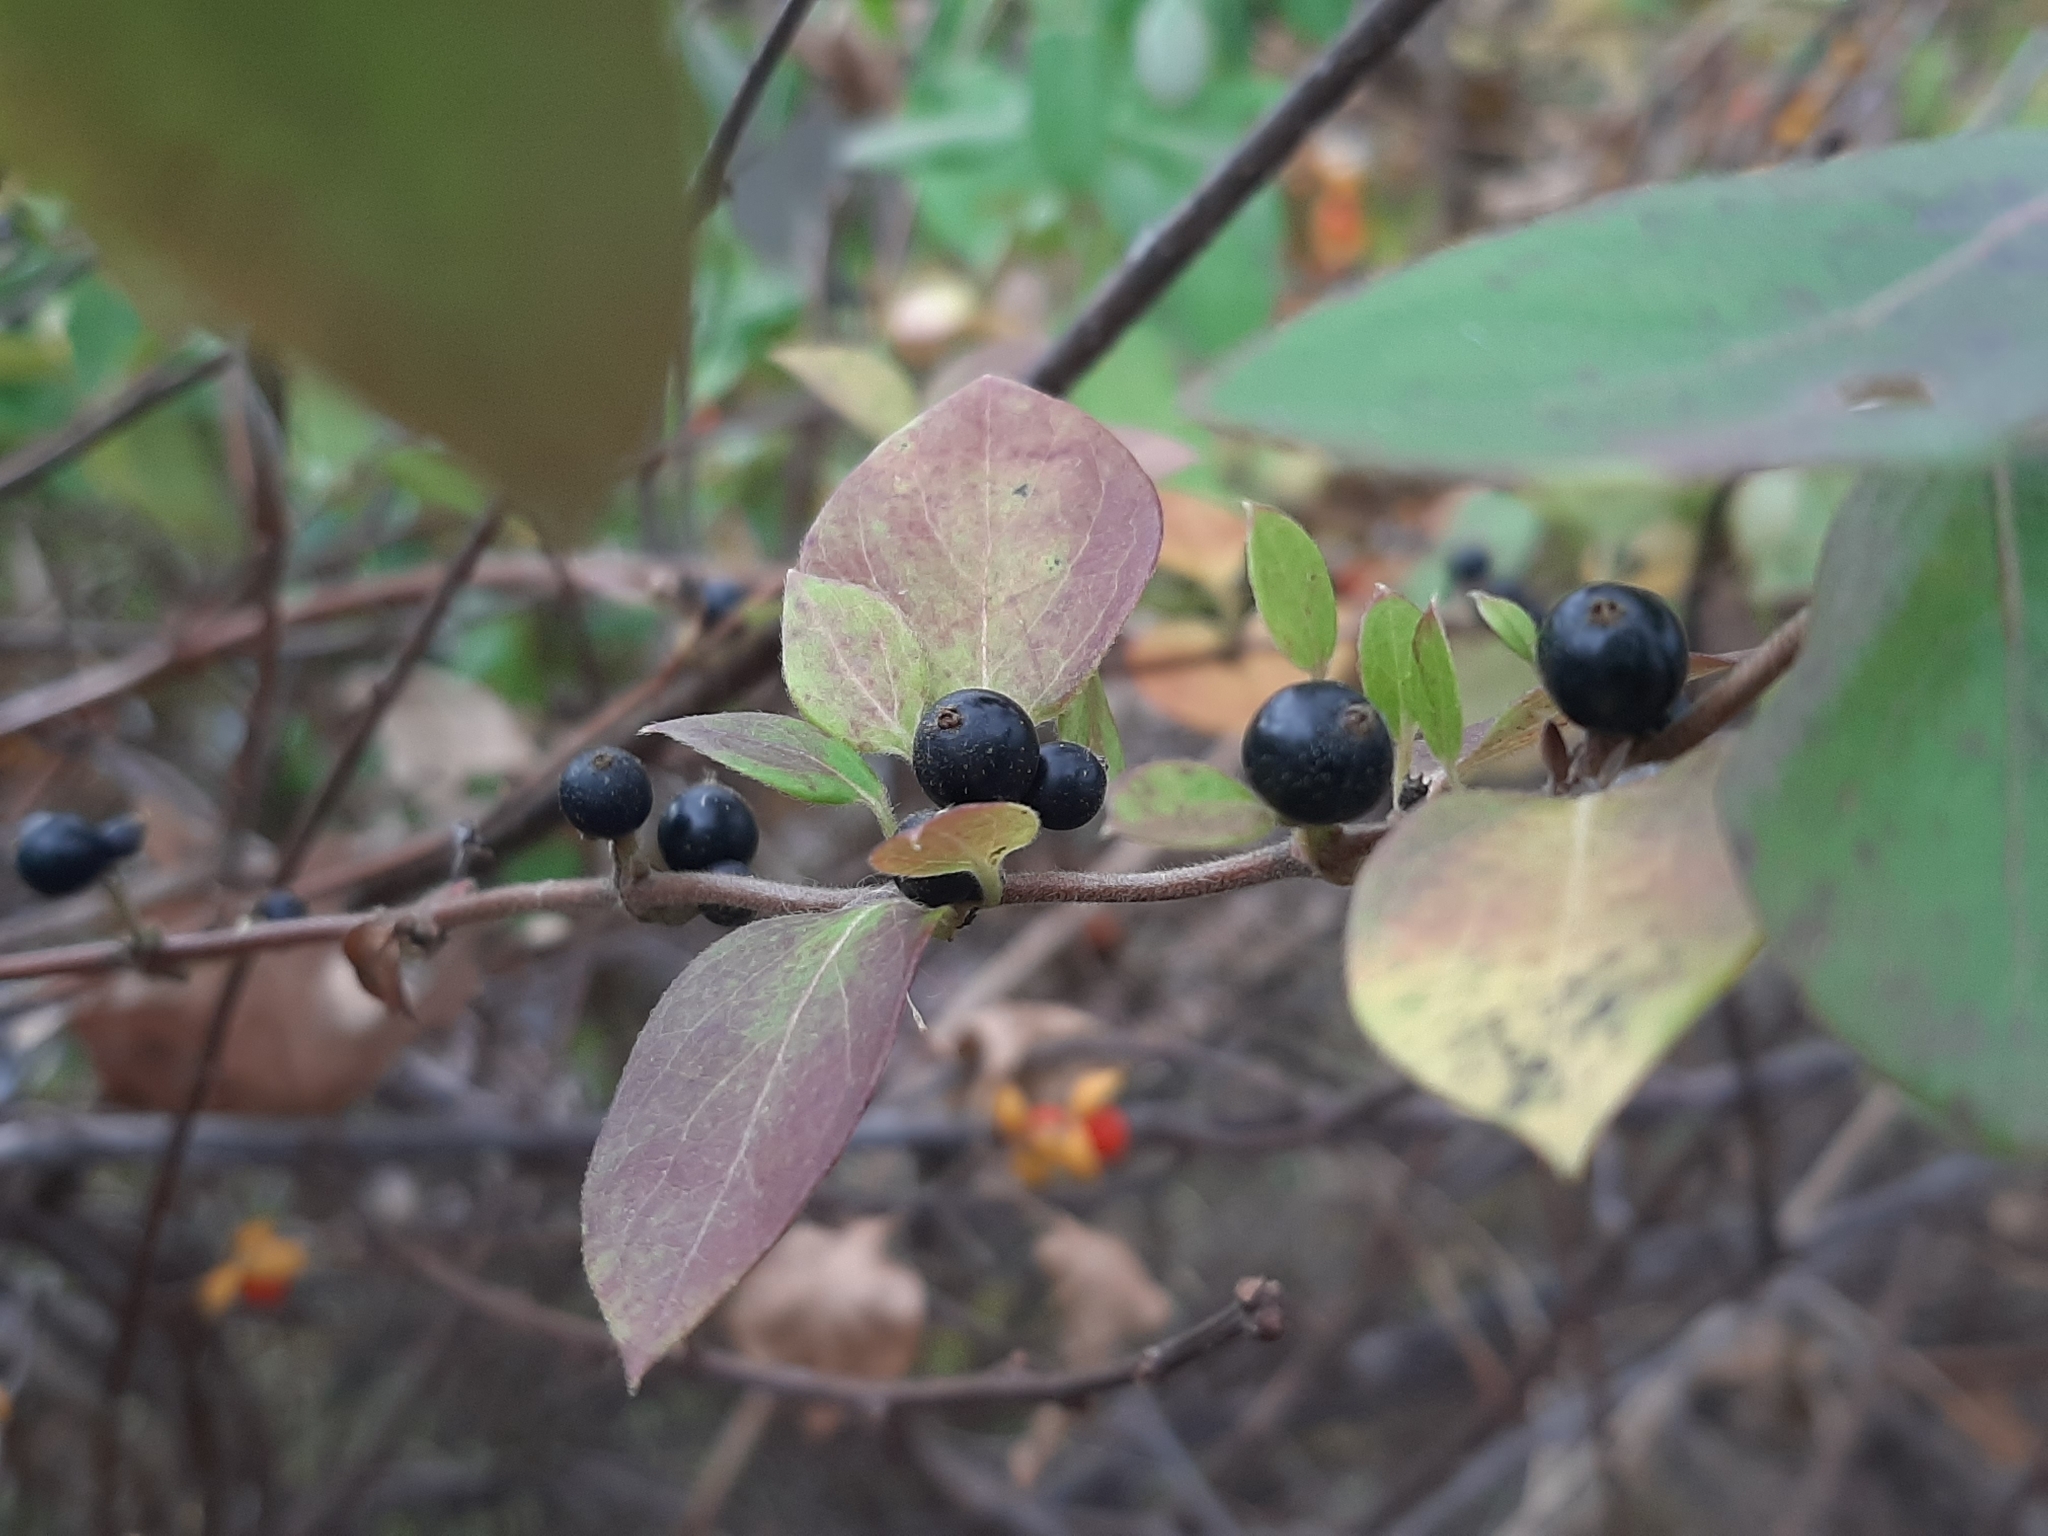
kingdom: Plantae
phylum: Tracheophyta
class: Magnoliopsida
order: Dipsacales
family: Caprifoliaceae
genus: Lonicera
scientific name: Lonicera japonica
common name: Japanese honeysuckle
